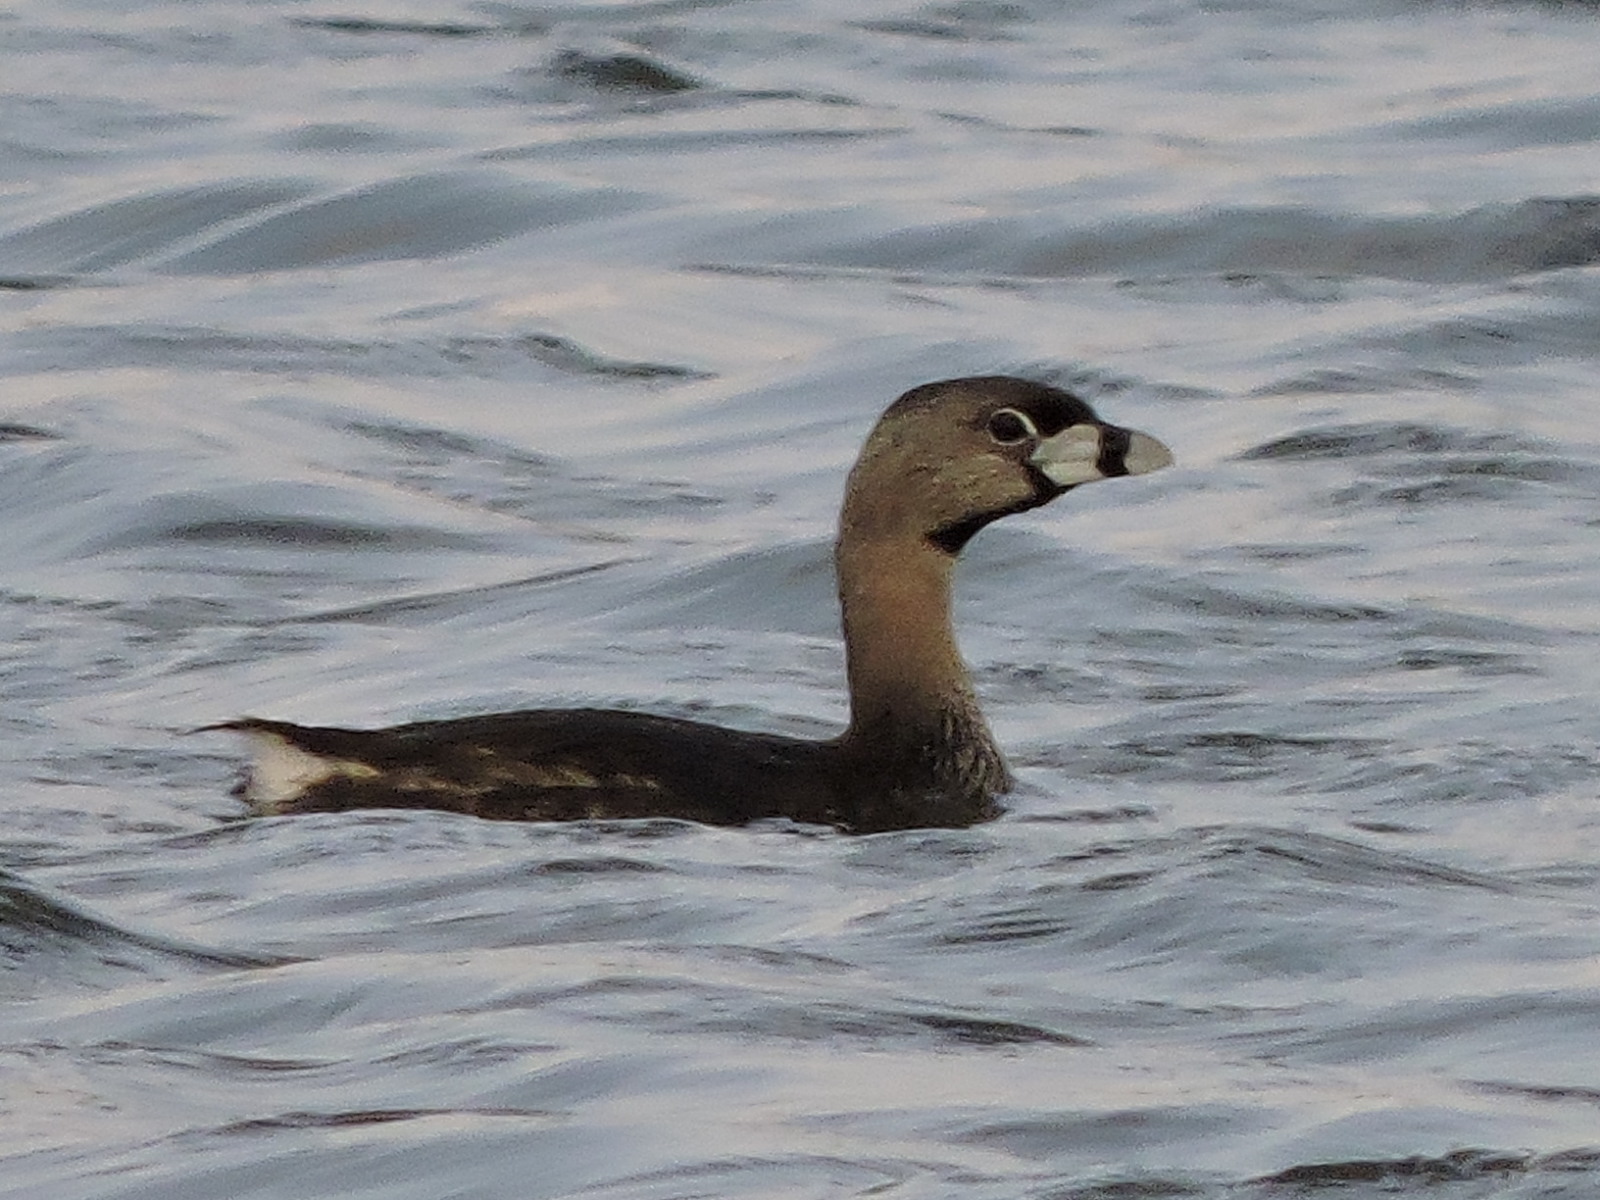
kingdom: Animalia
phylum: Chordata
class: Aves
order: Podicipediformes
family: Podicipedidae
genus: Podilymbus
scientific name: Podilymbus podiceps
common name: Pied-billed grebe
